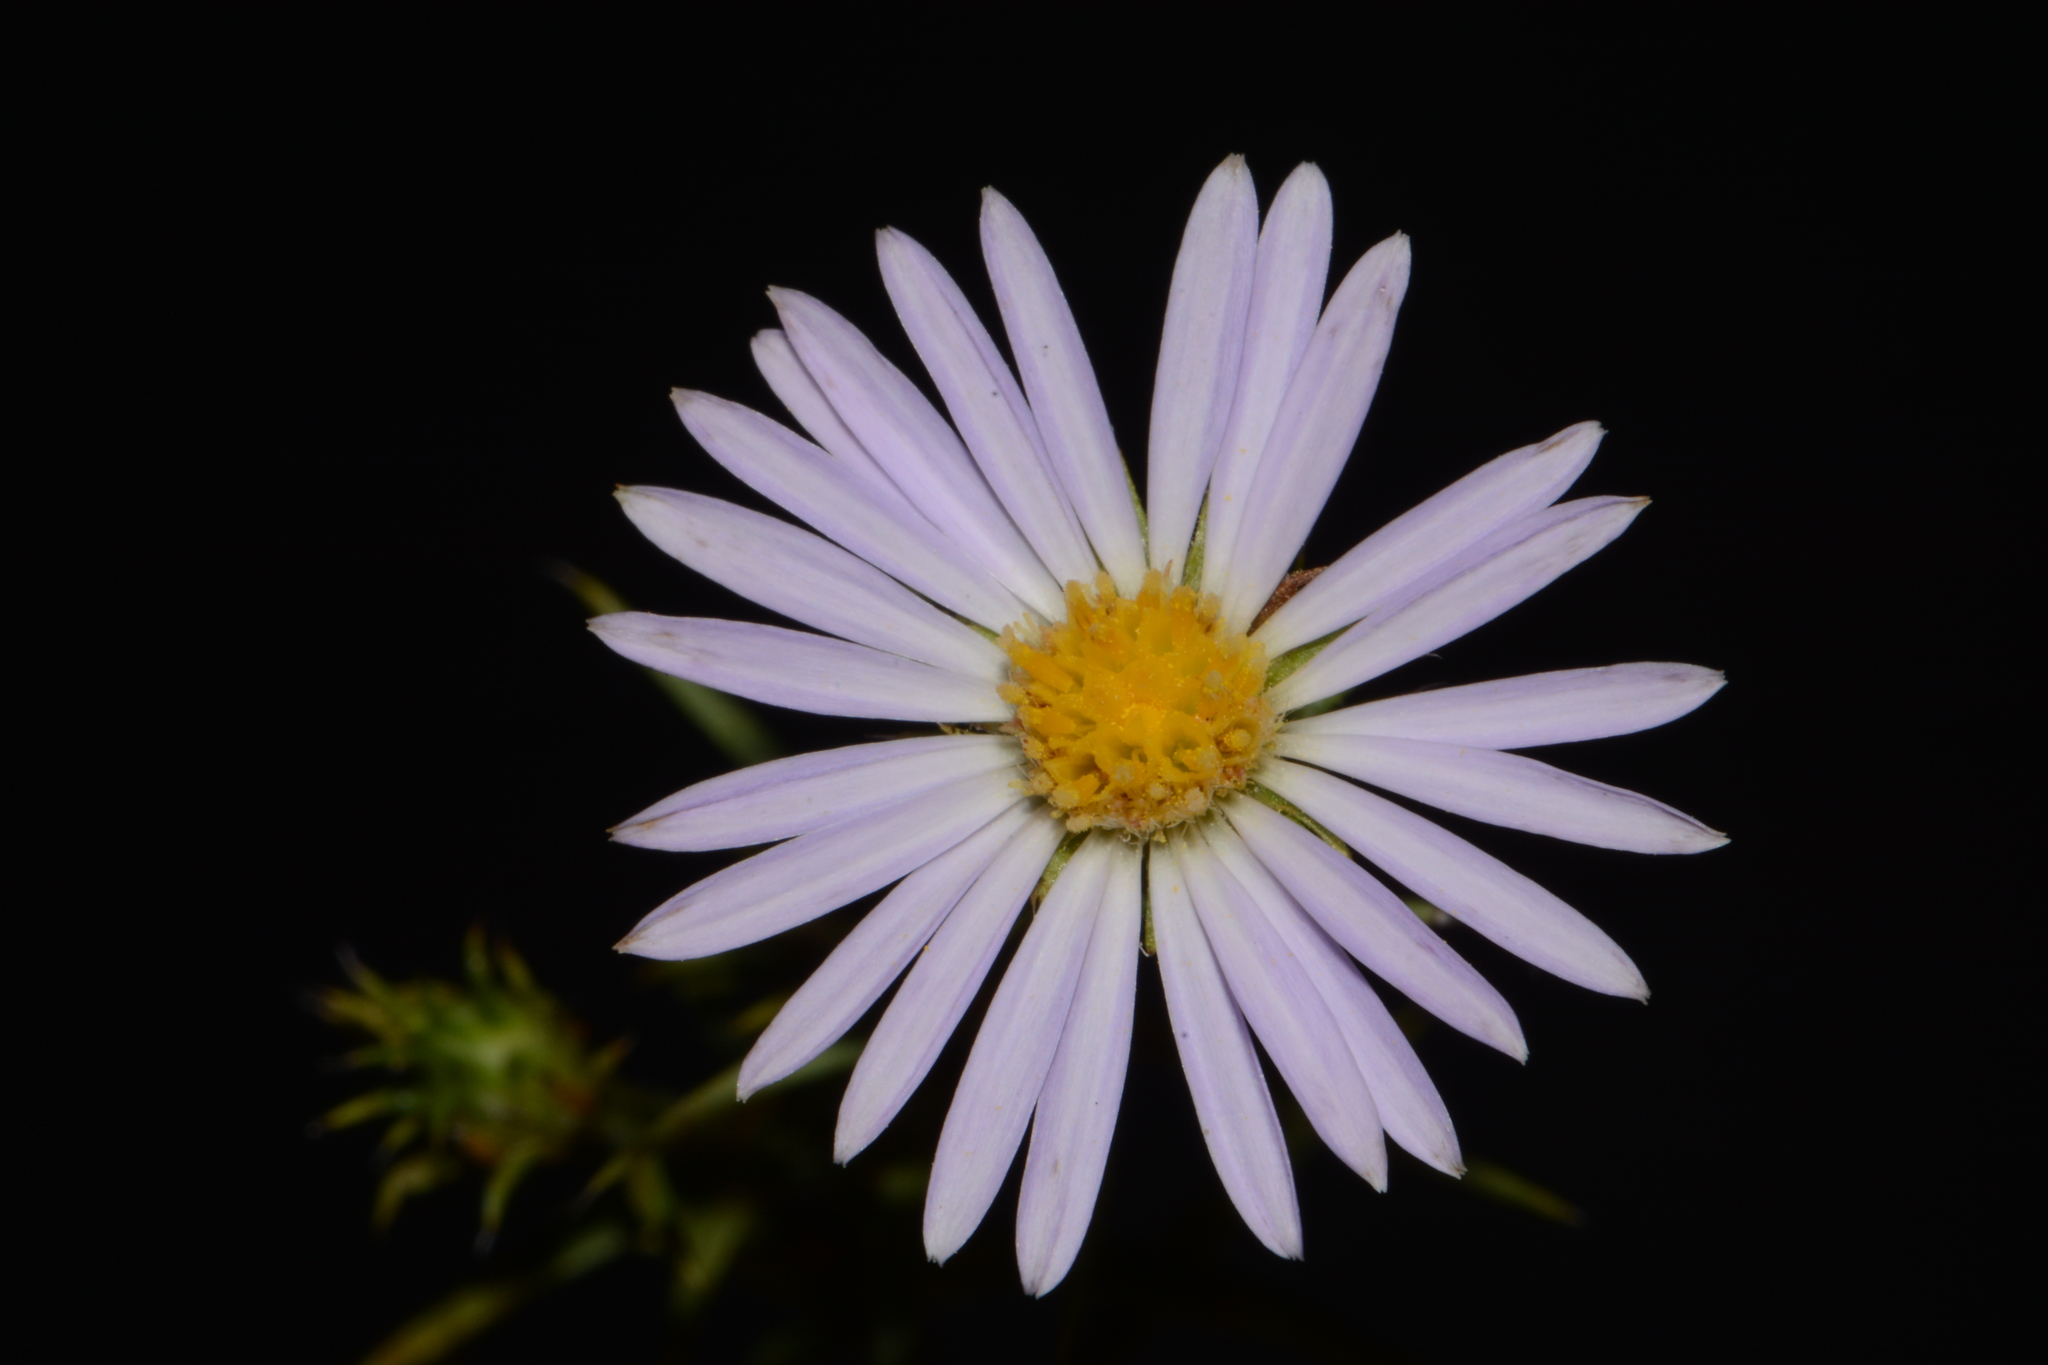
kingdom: Plantae
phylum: Tracheophyta
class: Magnoliopsida
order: Asterales
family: Asteraceae
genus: Symphyotrichum
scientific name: Symphyotrichum priceae
